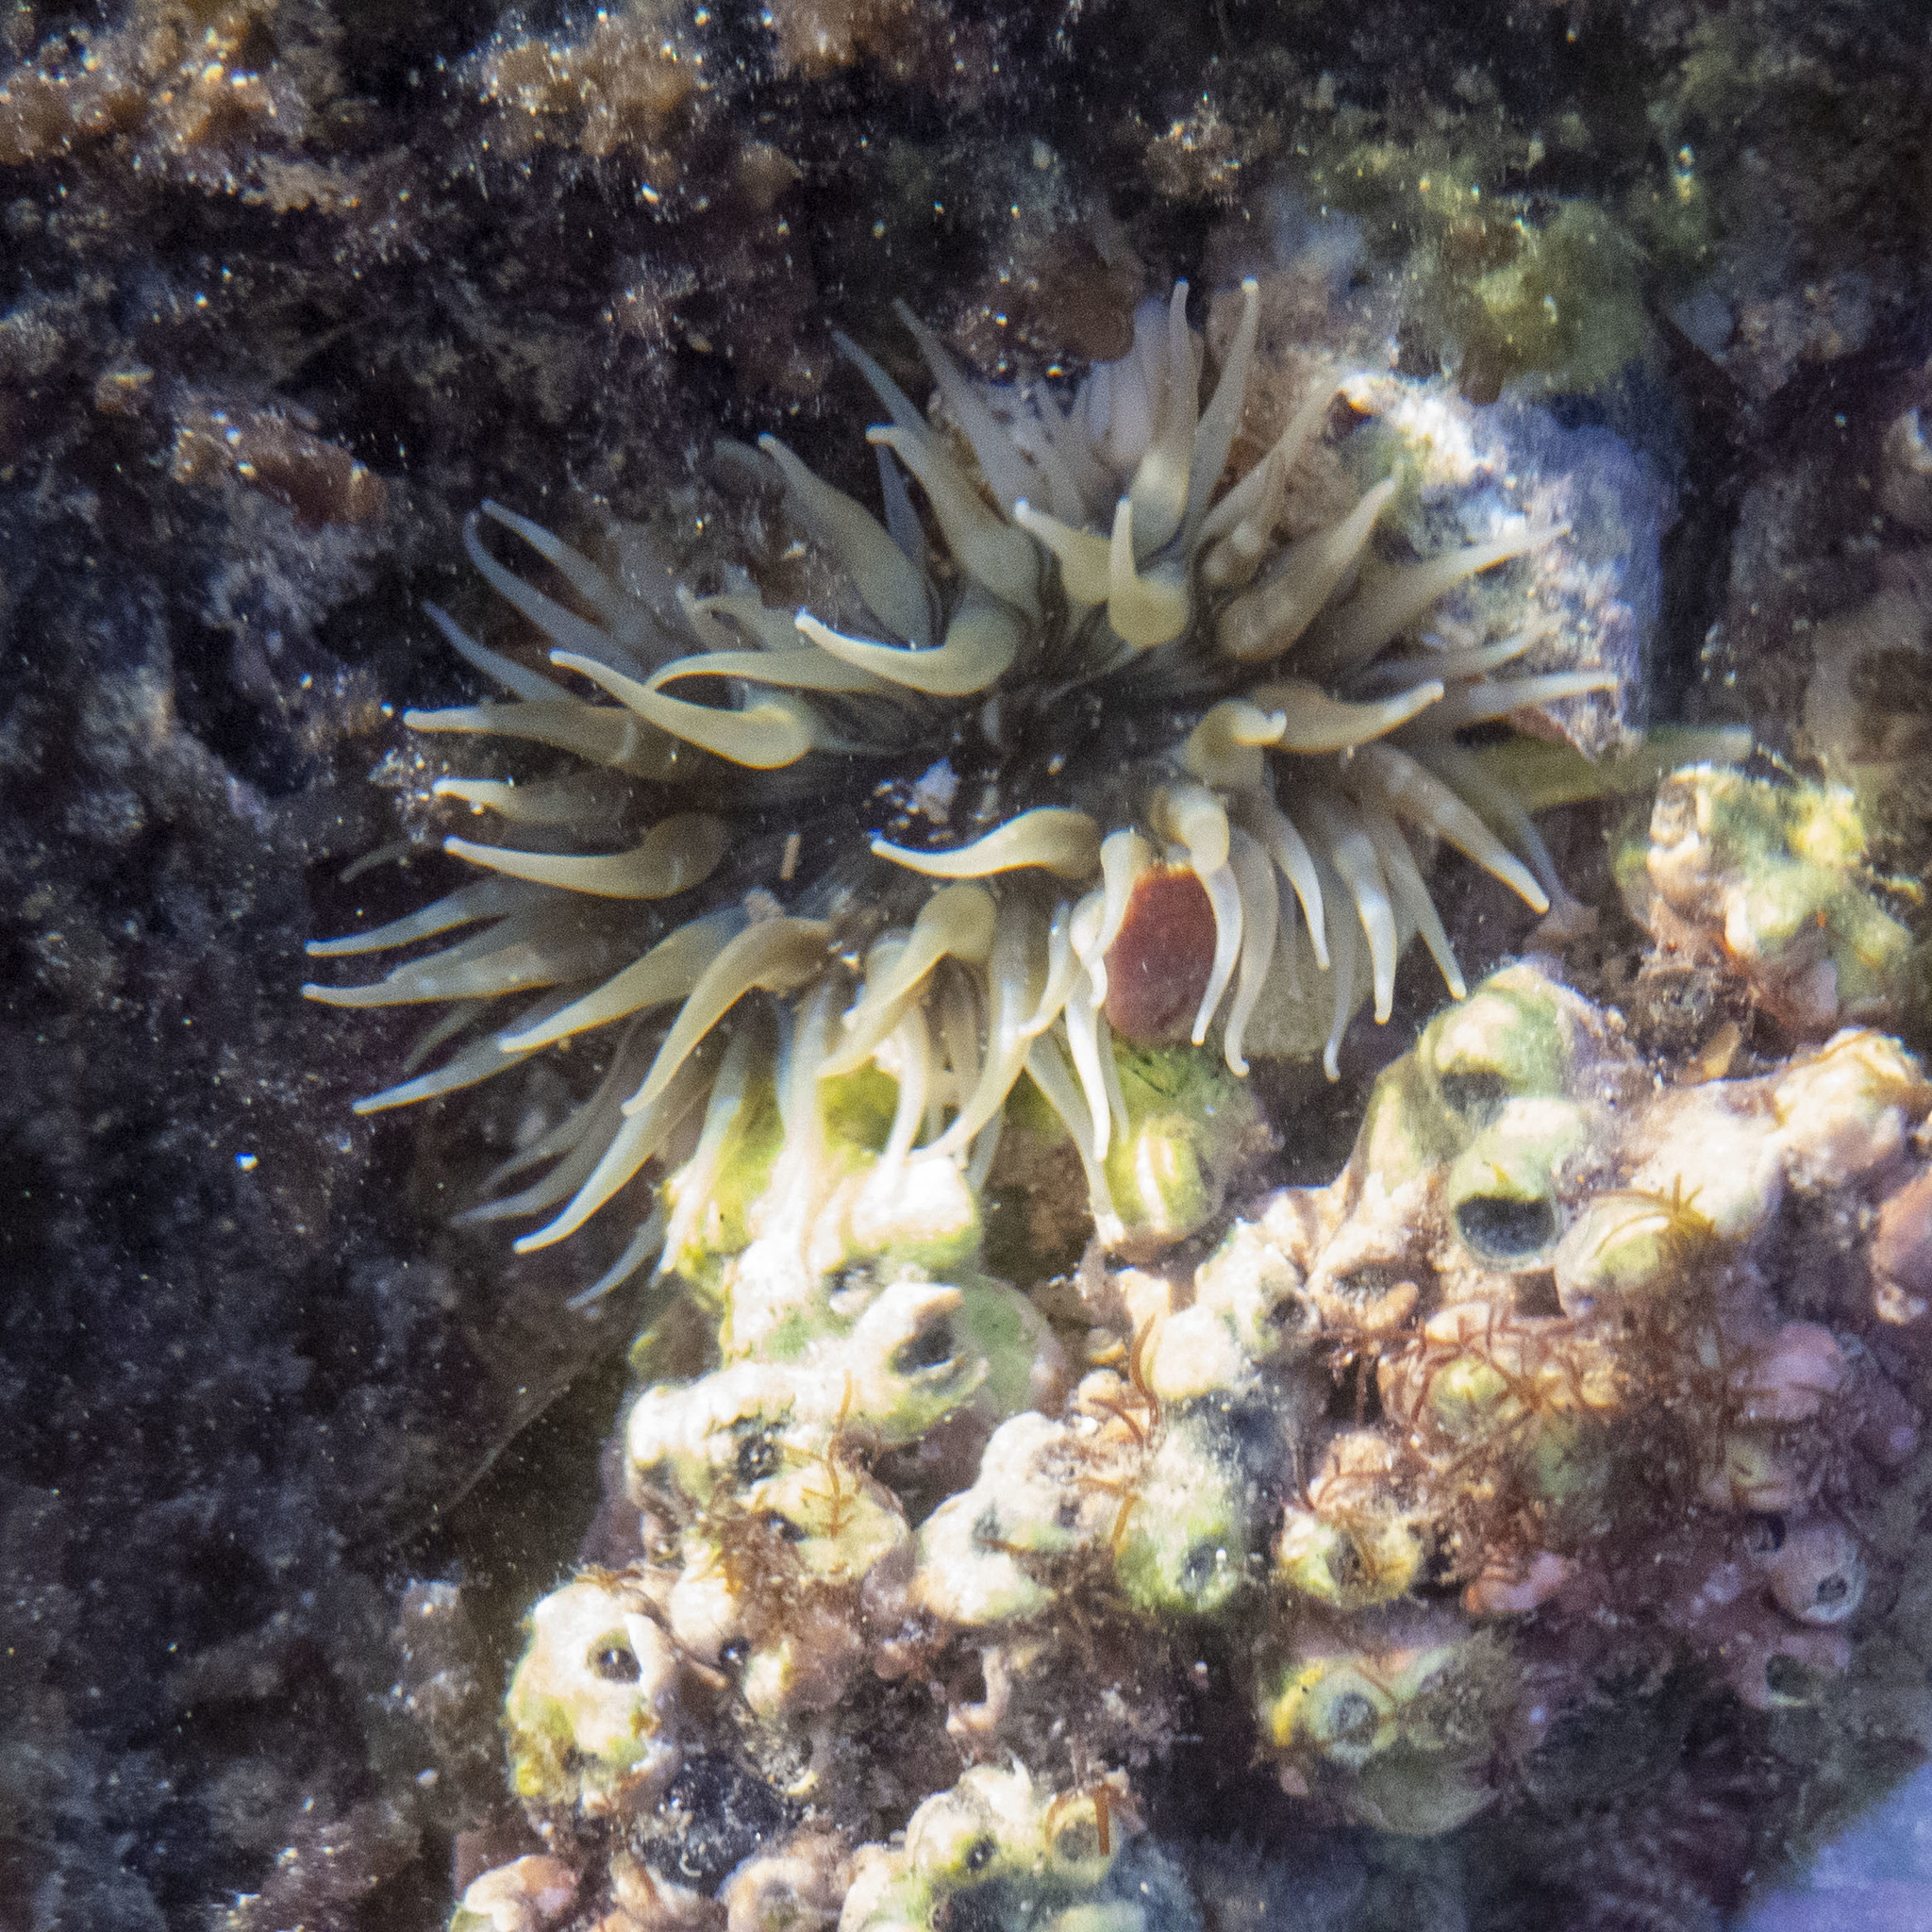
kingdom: Animalia
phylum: Cnidaria
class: Anthozoa
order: Actiniaria
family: Actiniidae
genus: Anthopleura
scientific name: Anthopleura anjunae
